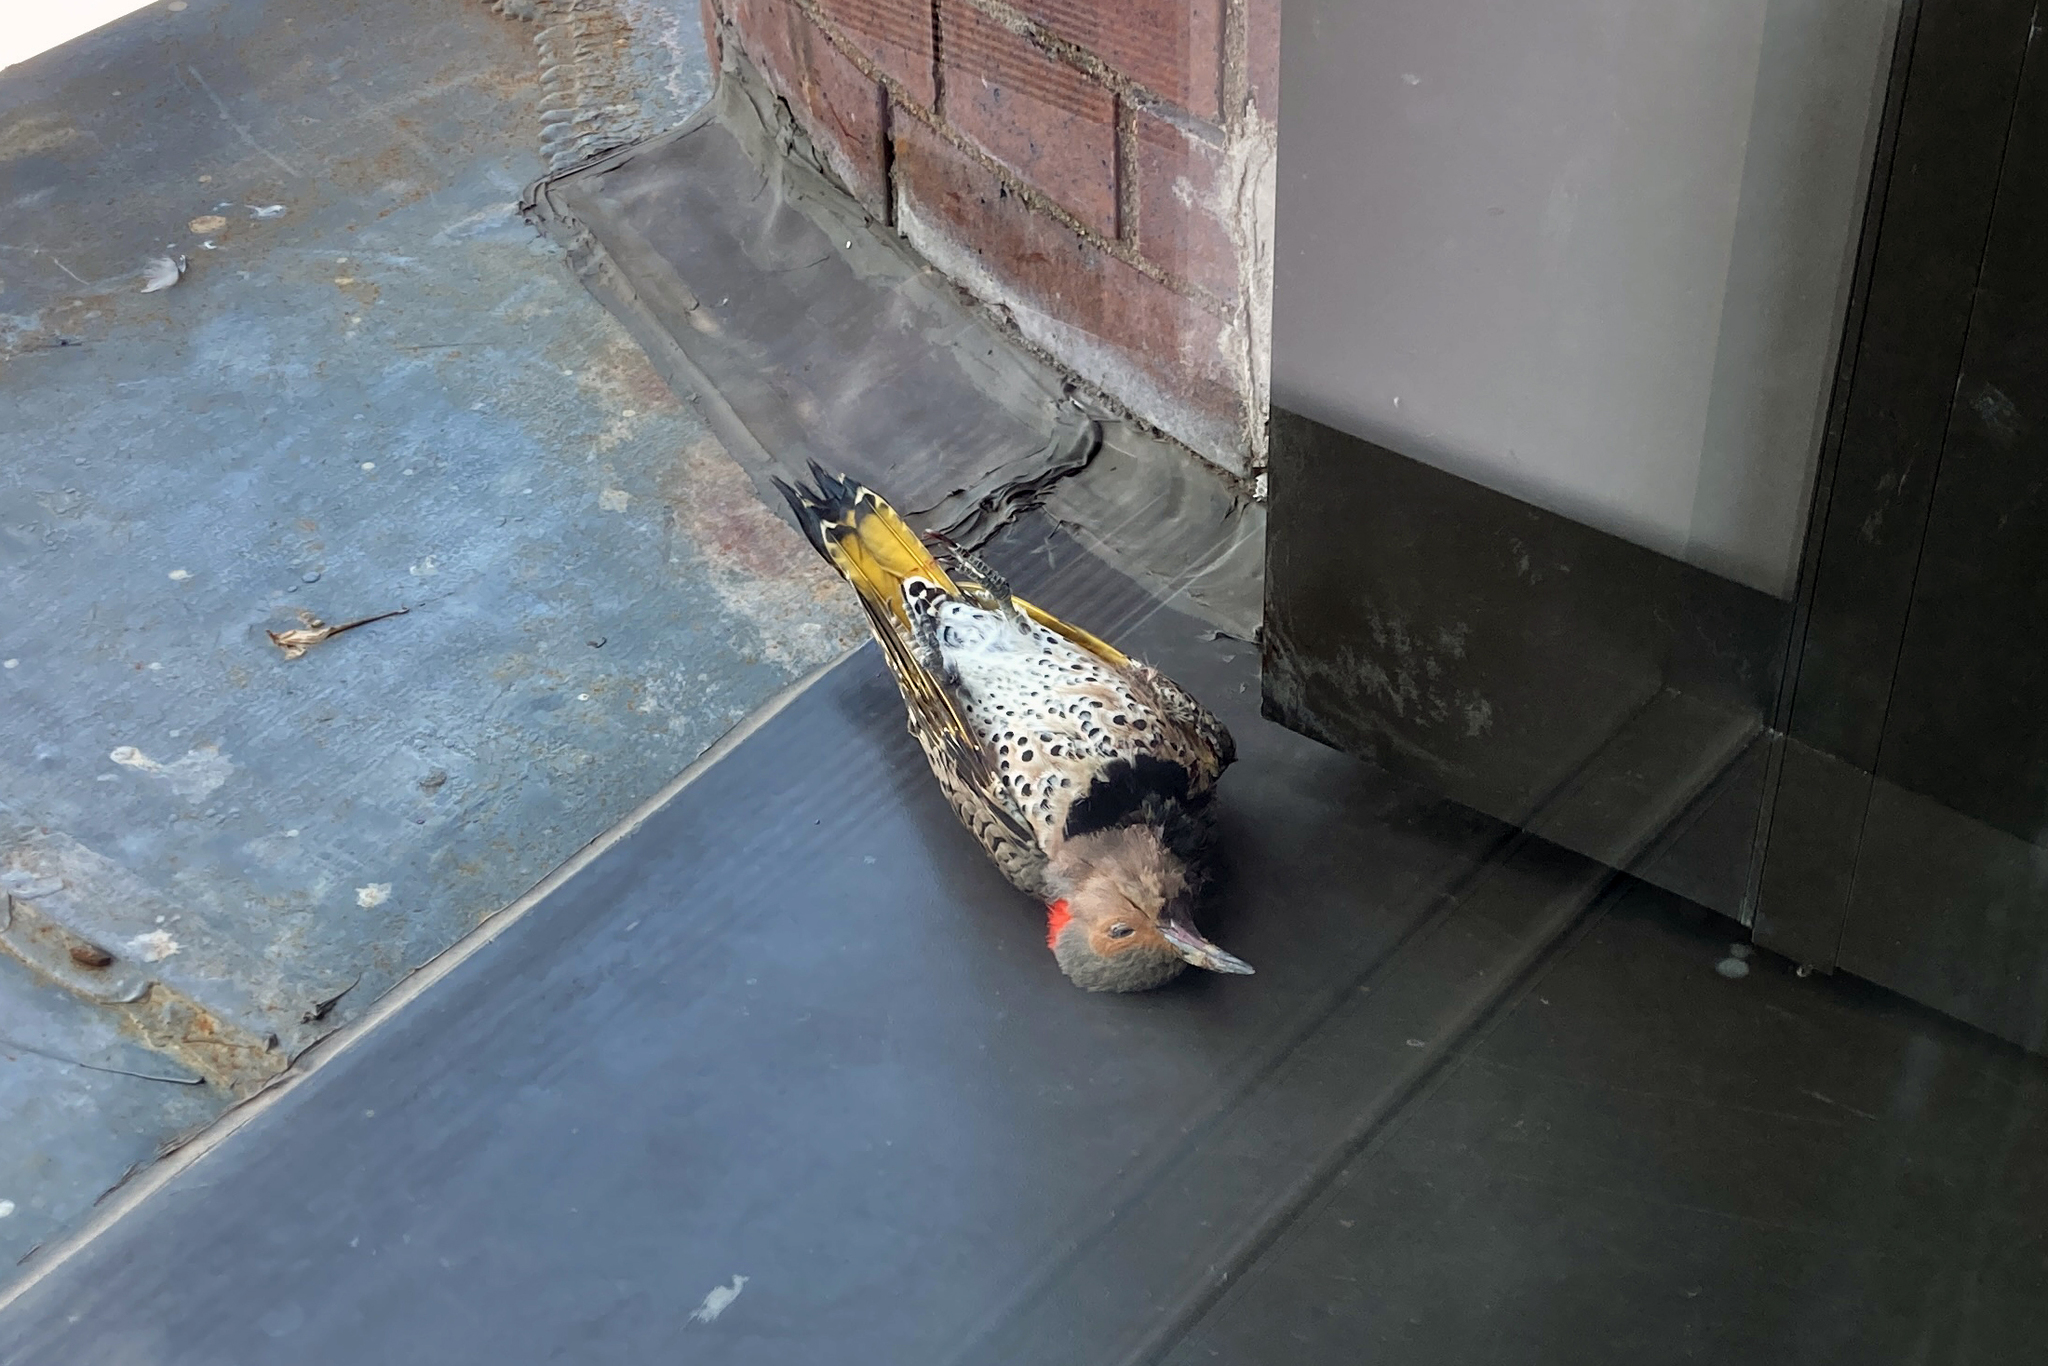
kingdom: Animalia
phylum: Chordata
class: Aves
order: Piciformes
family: Picidae
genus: Colaptes
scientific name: Colaptes auratus
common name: Northern flicker
